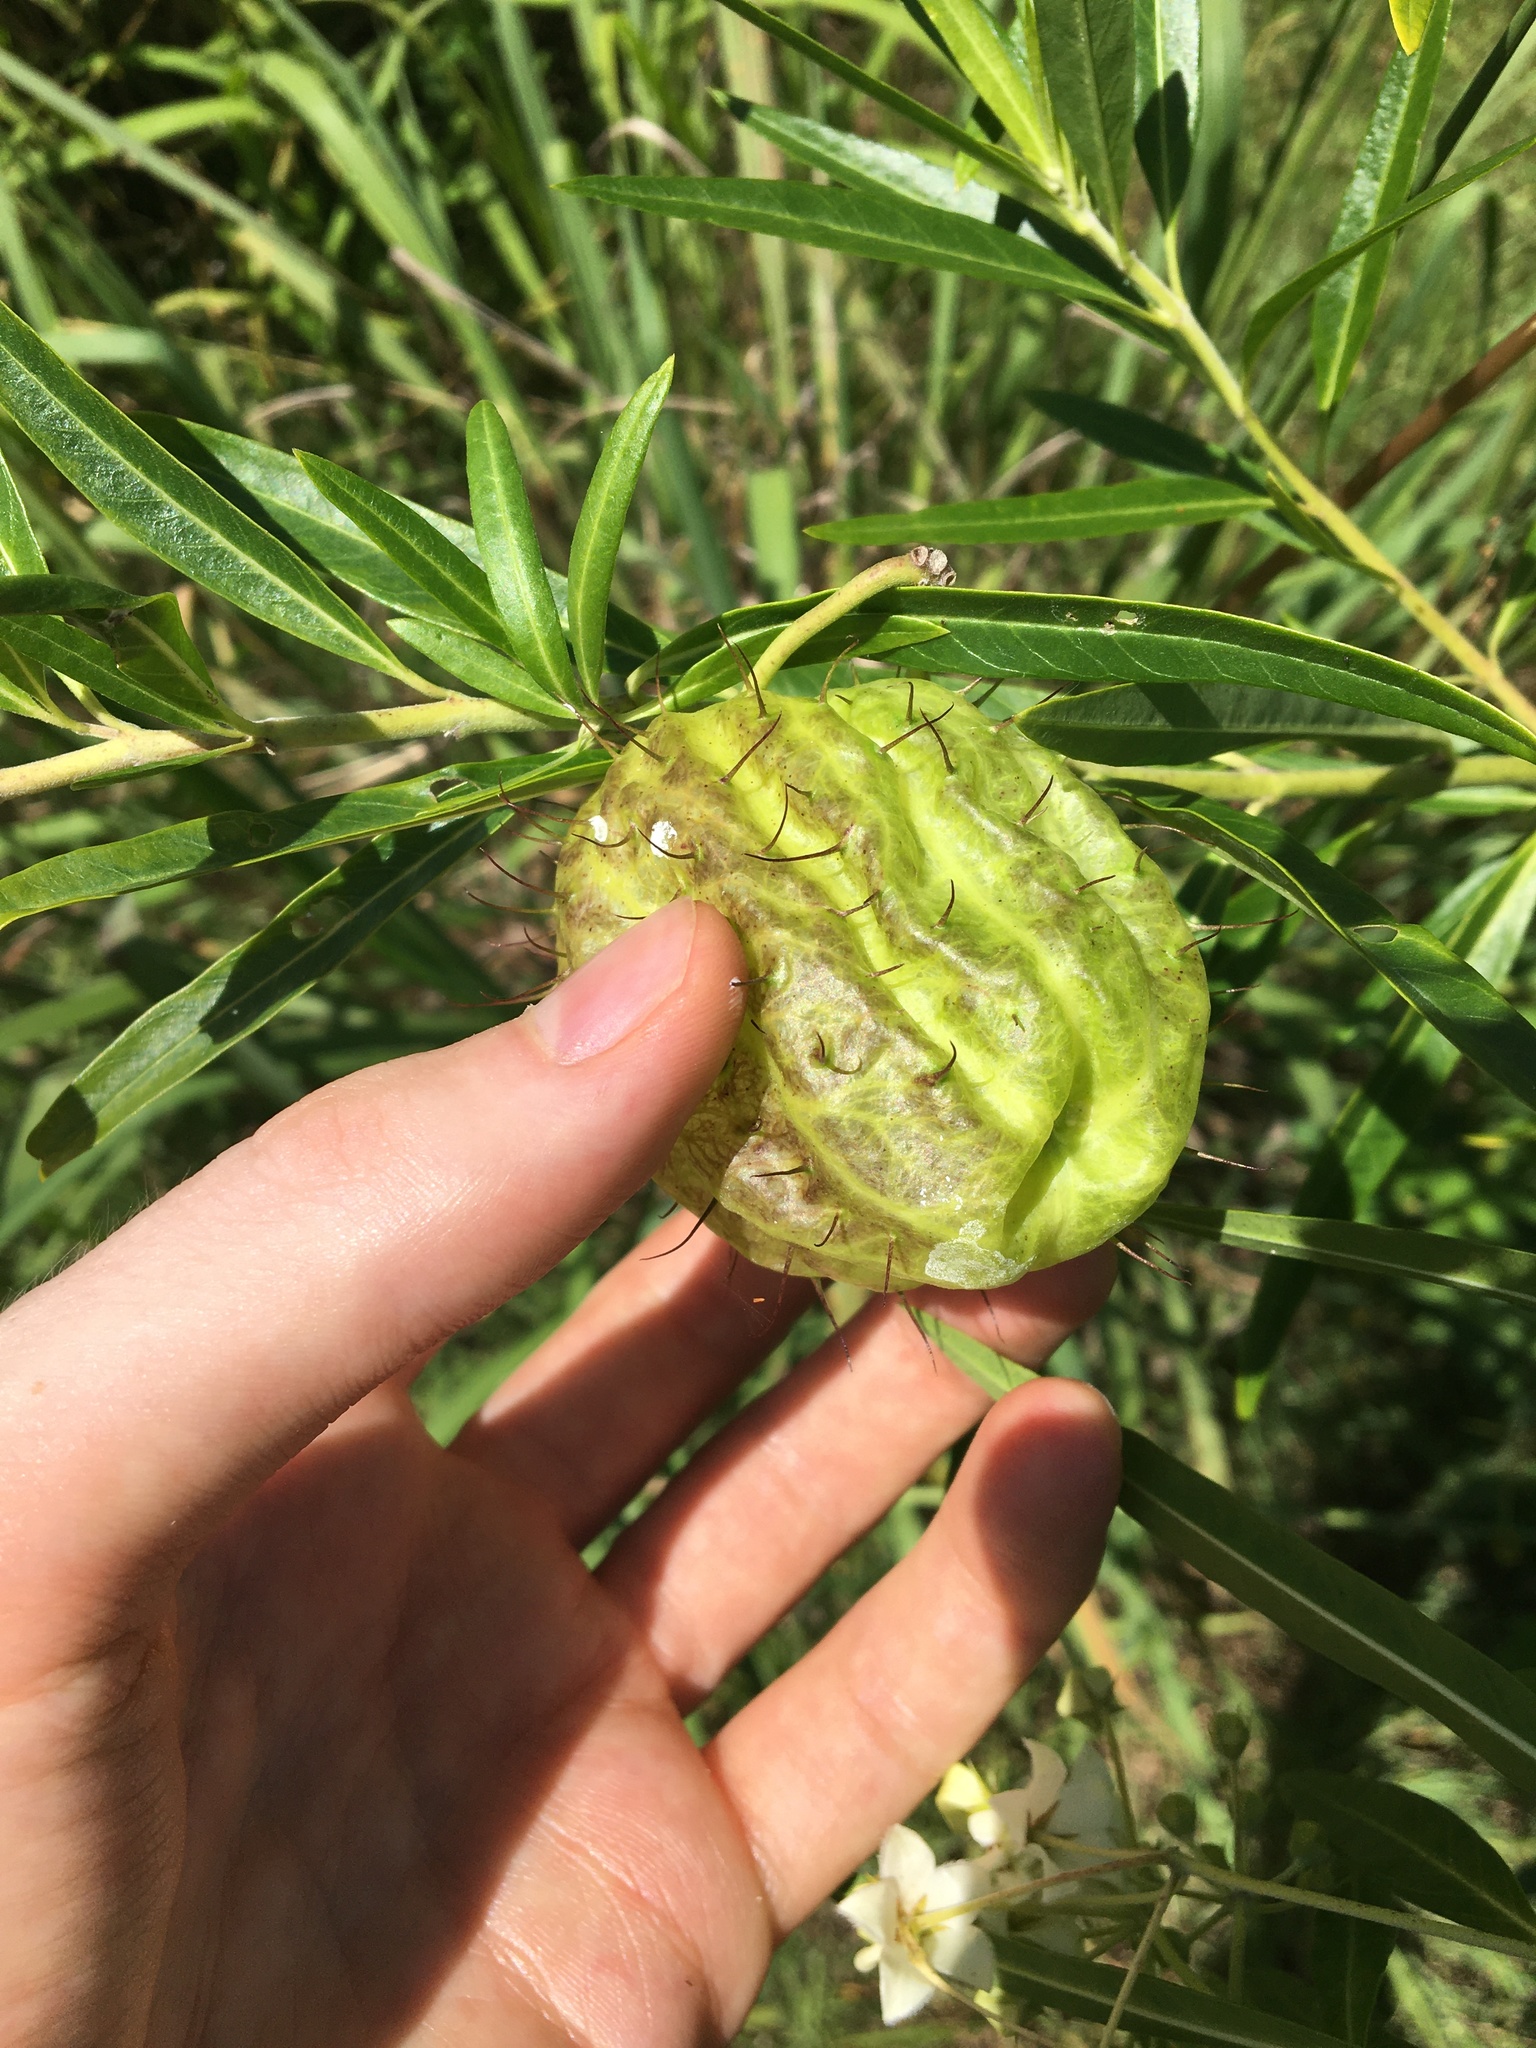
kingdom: Plantae
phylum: Tracheophyta
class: Magnoliopsida
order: Gentianales
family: Apocynaceae
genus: Gomphocarpus
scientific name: Gomphocarpus physocarpus
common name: Balloon cotton bush
